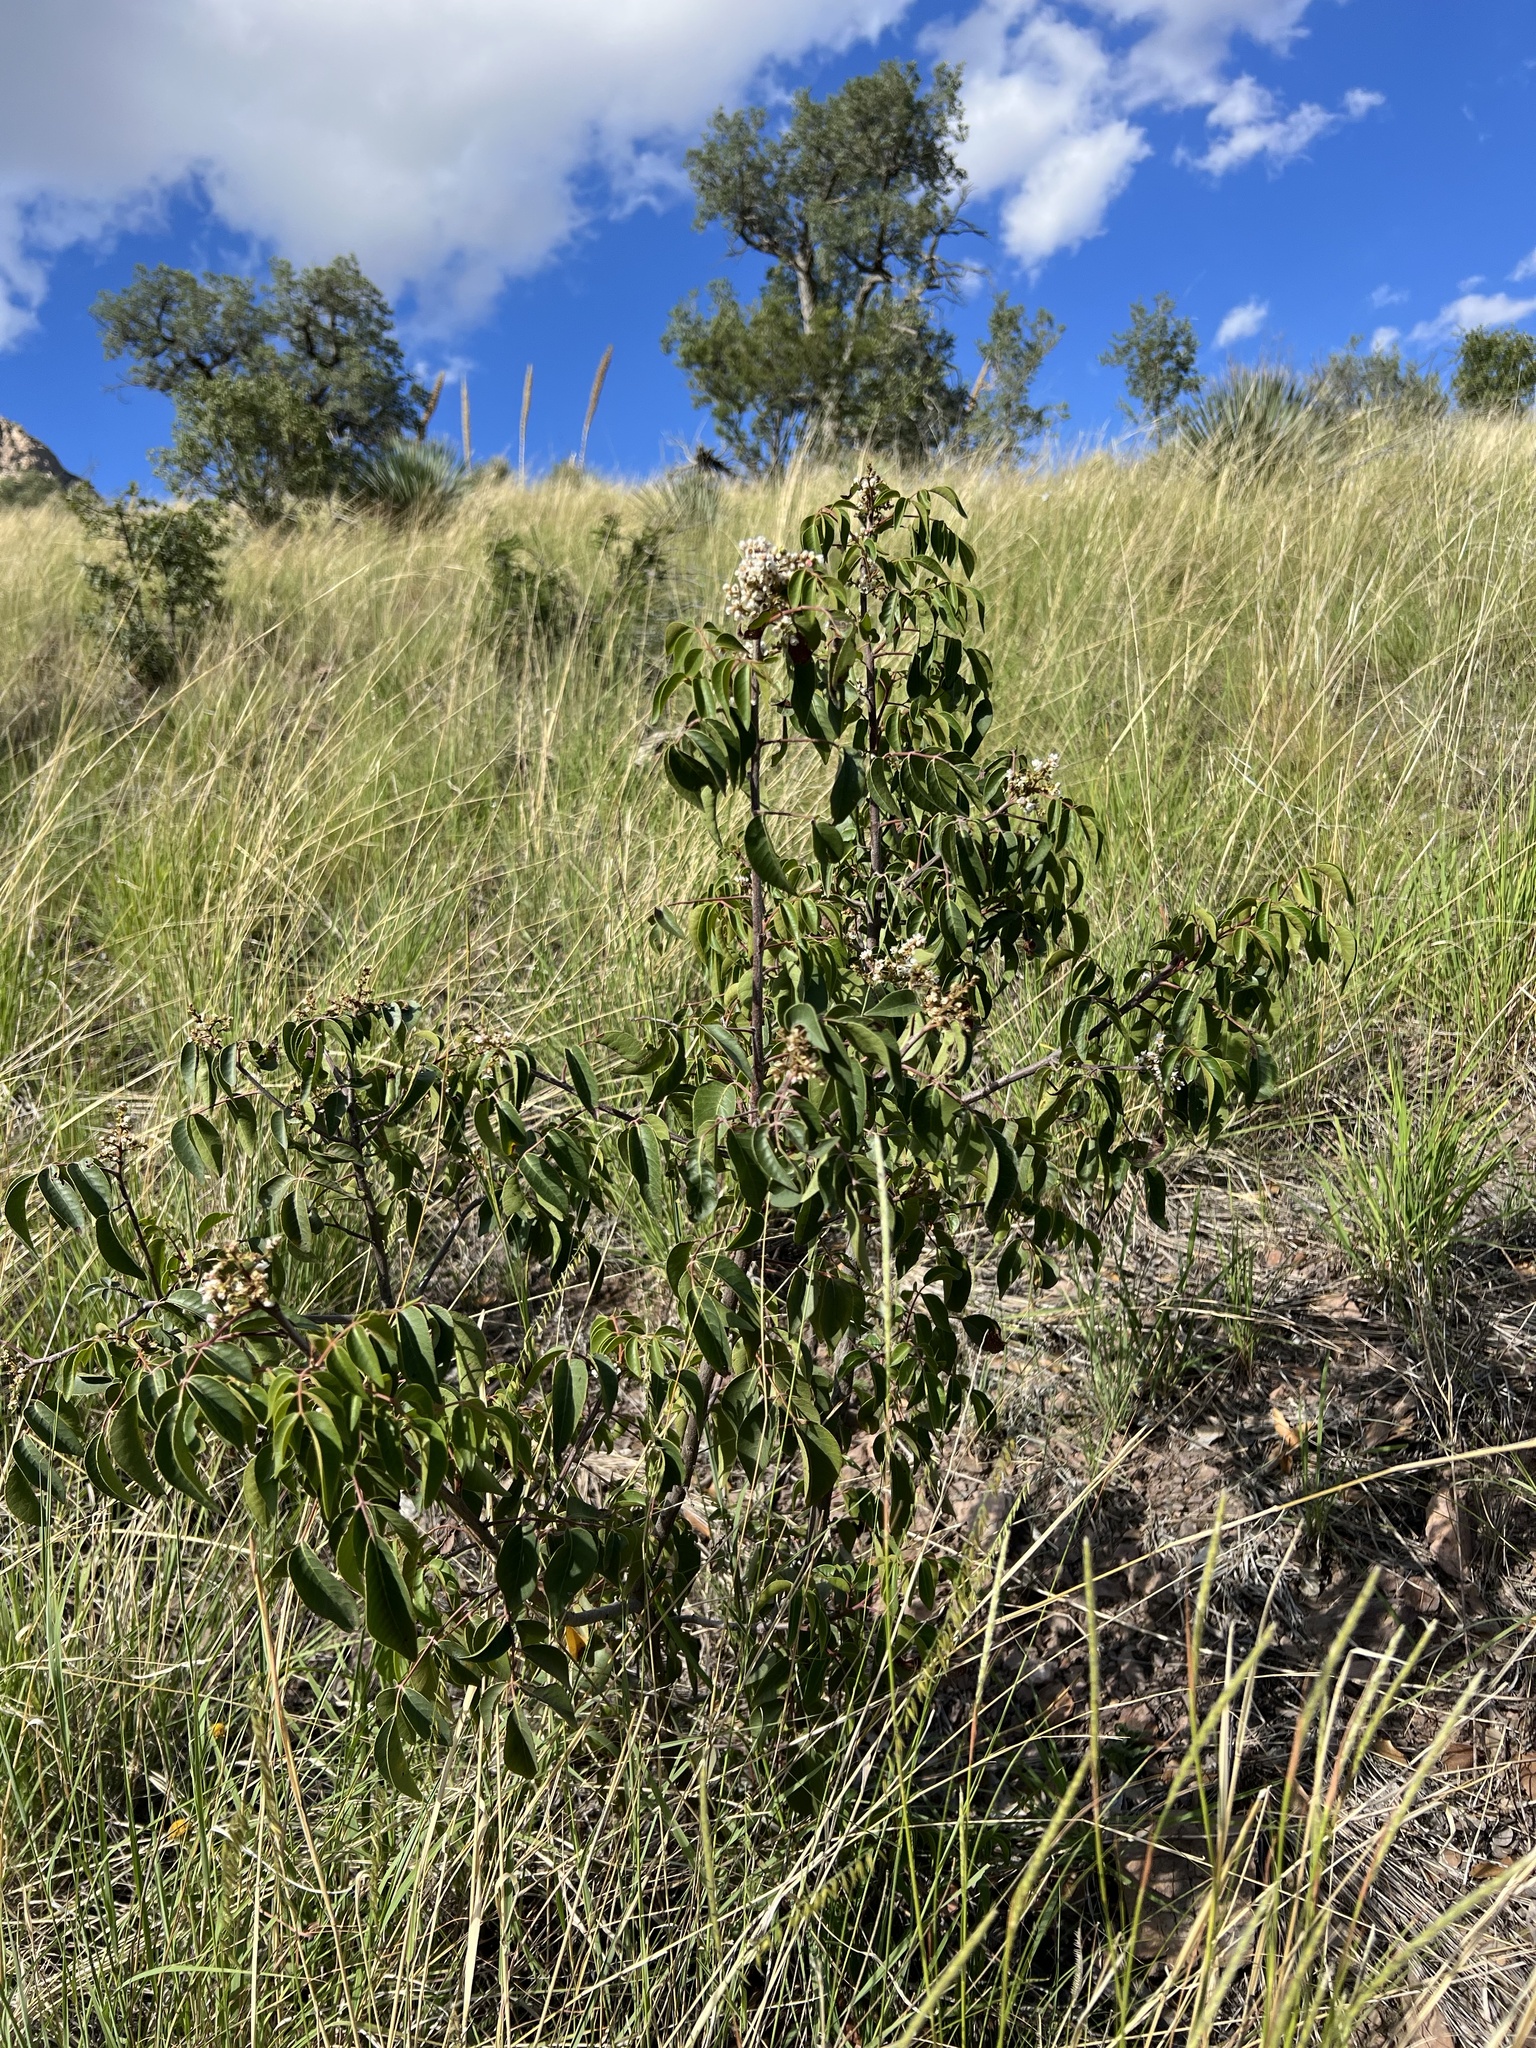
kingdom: Plantae
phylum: Tracheophyta
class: Magnoliopsida
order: Sapindales
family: Anacardiaceae
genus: Rhus
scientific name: Rhus virens
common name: Evergreen sumac
